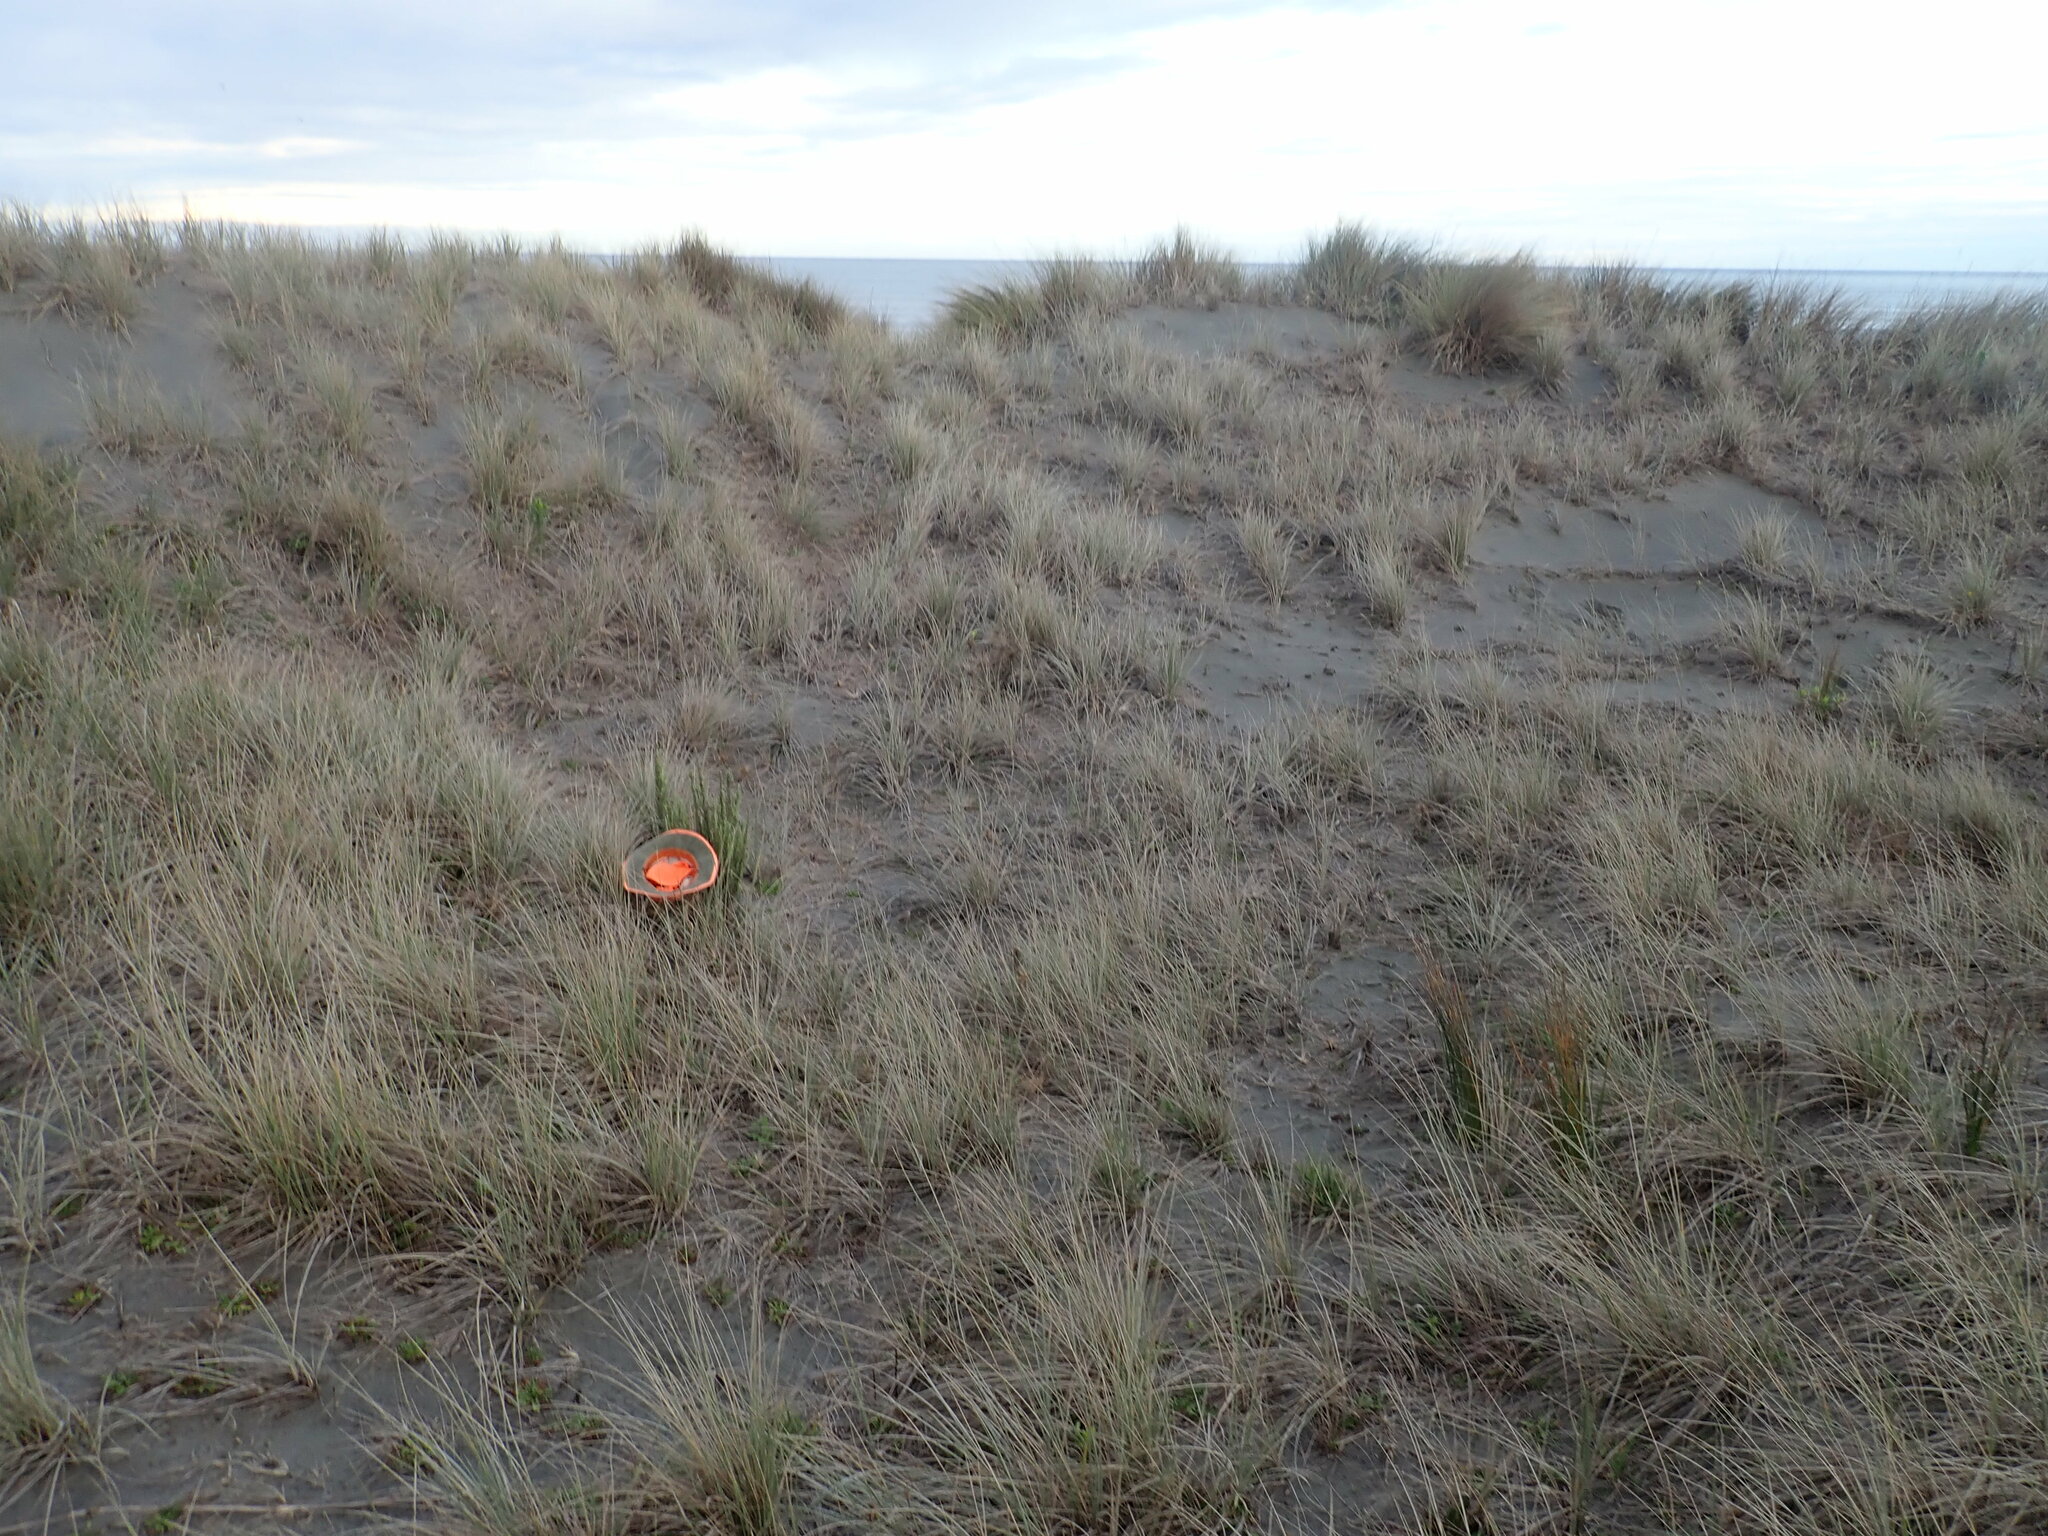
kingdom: Plantae
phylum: Tracheophyta
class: Magnoliopsida
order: Asterales
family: Asteraceae
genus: Ozothamnus
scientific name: Ozothamnus leptophyllus
